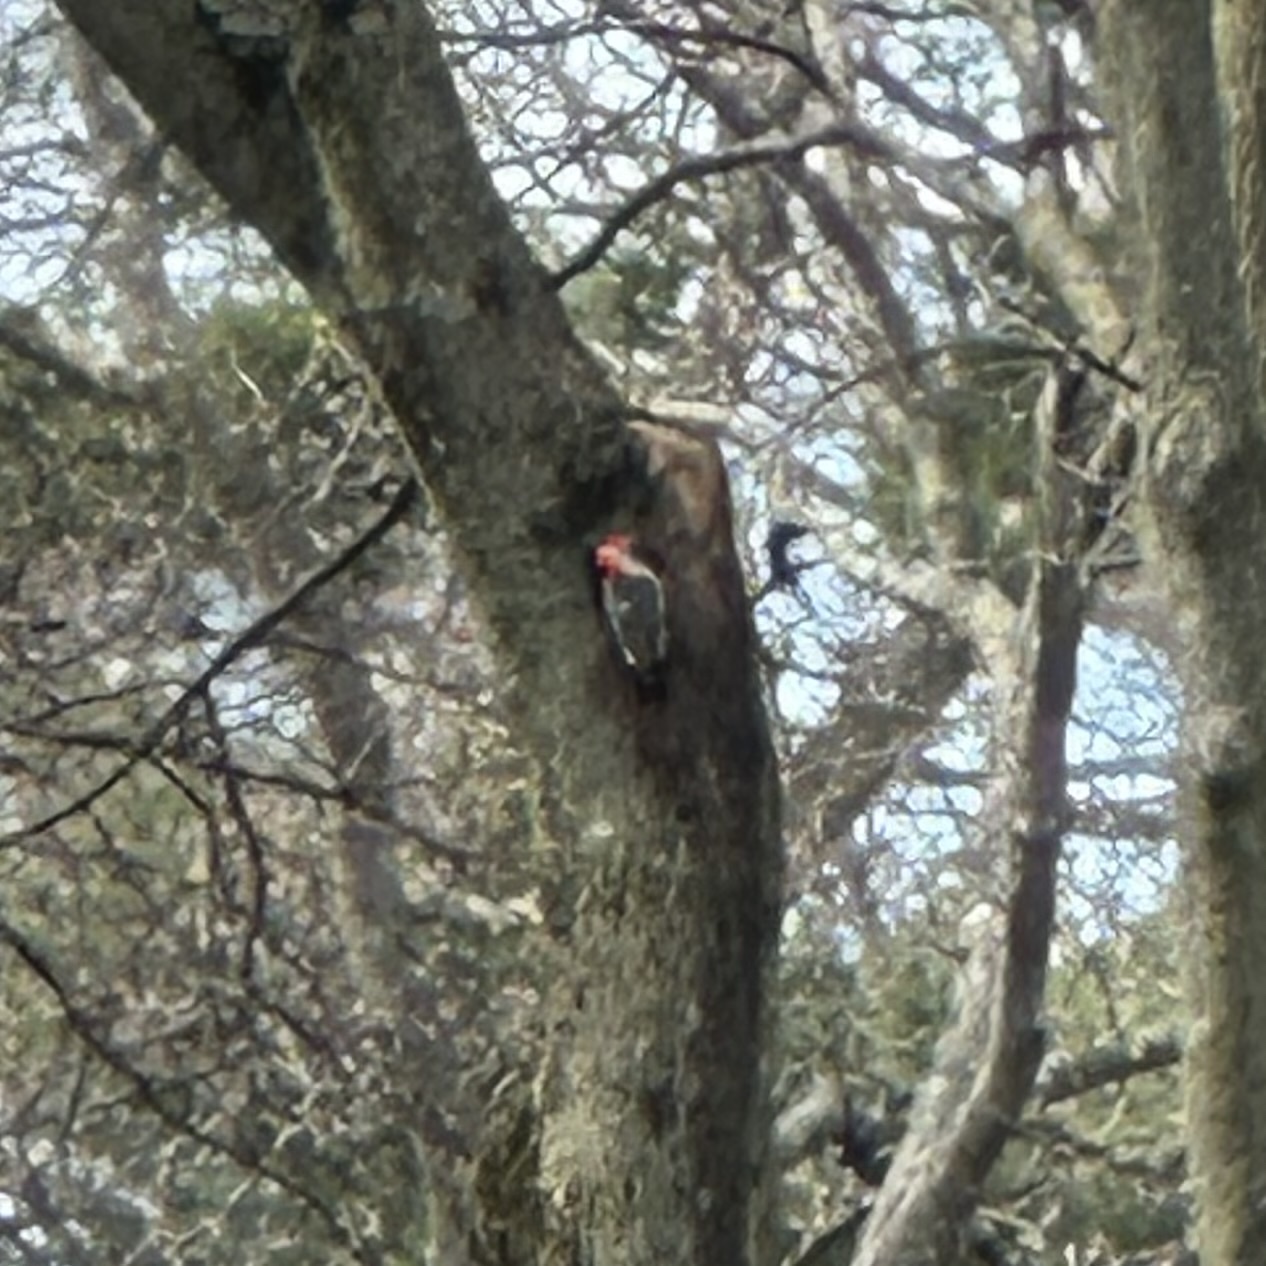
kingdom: Animalia
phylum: Chordata
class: Aves
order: Piciformes
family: Picidae
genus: Melanerpes
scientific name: Melanerpes carolinus
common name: Red-bellied woodpecker
